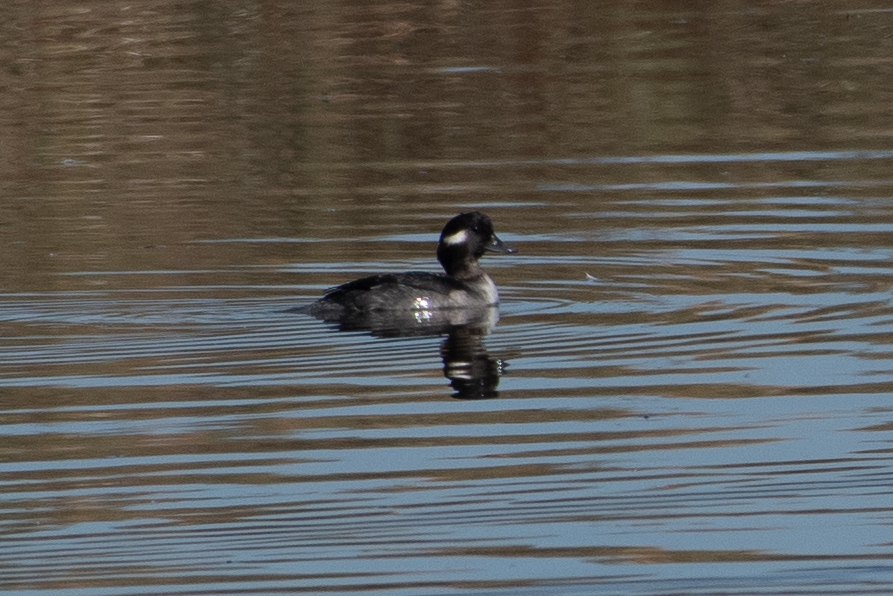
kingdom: Animalia
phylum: Chordata
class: Aves
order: Anseriformes
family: Anatidae
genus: Bucephala
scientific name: Bucephala albeola
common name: Bufflehead
